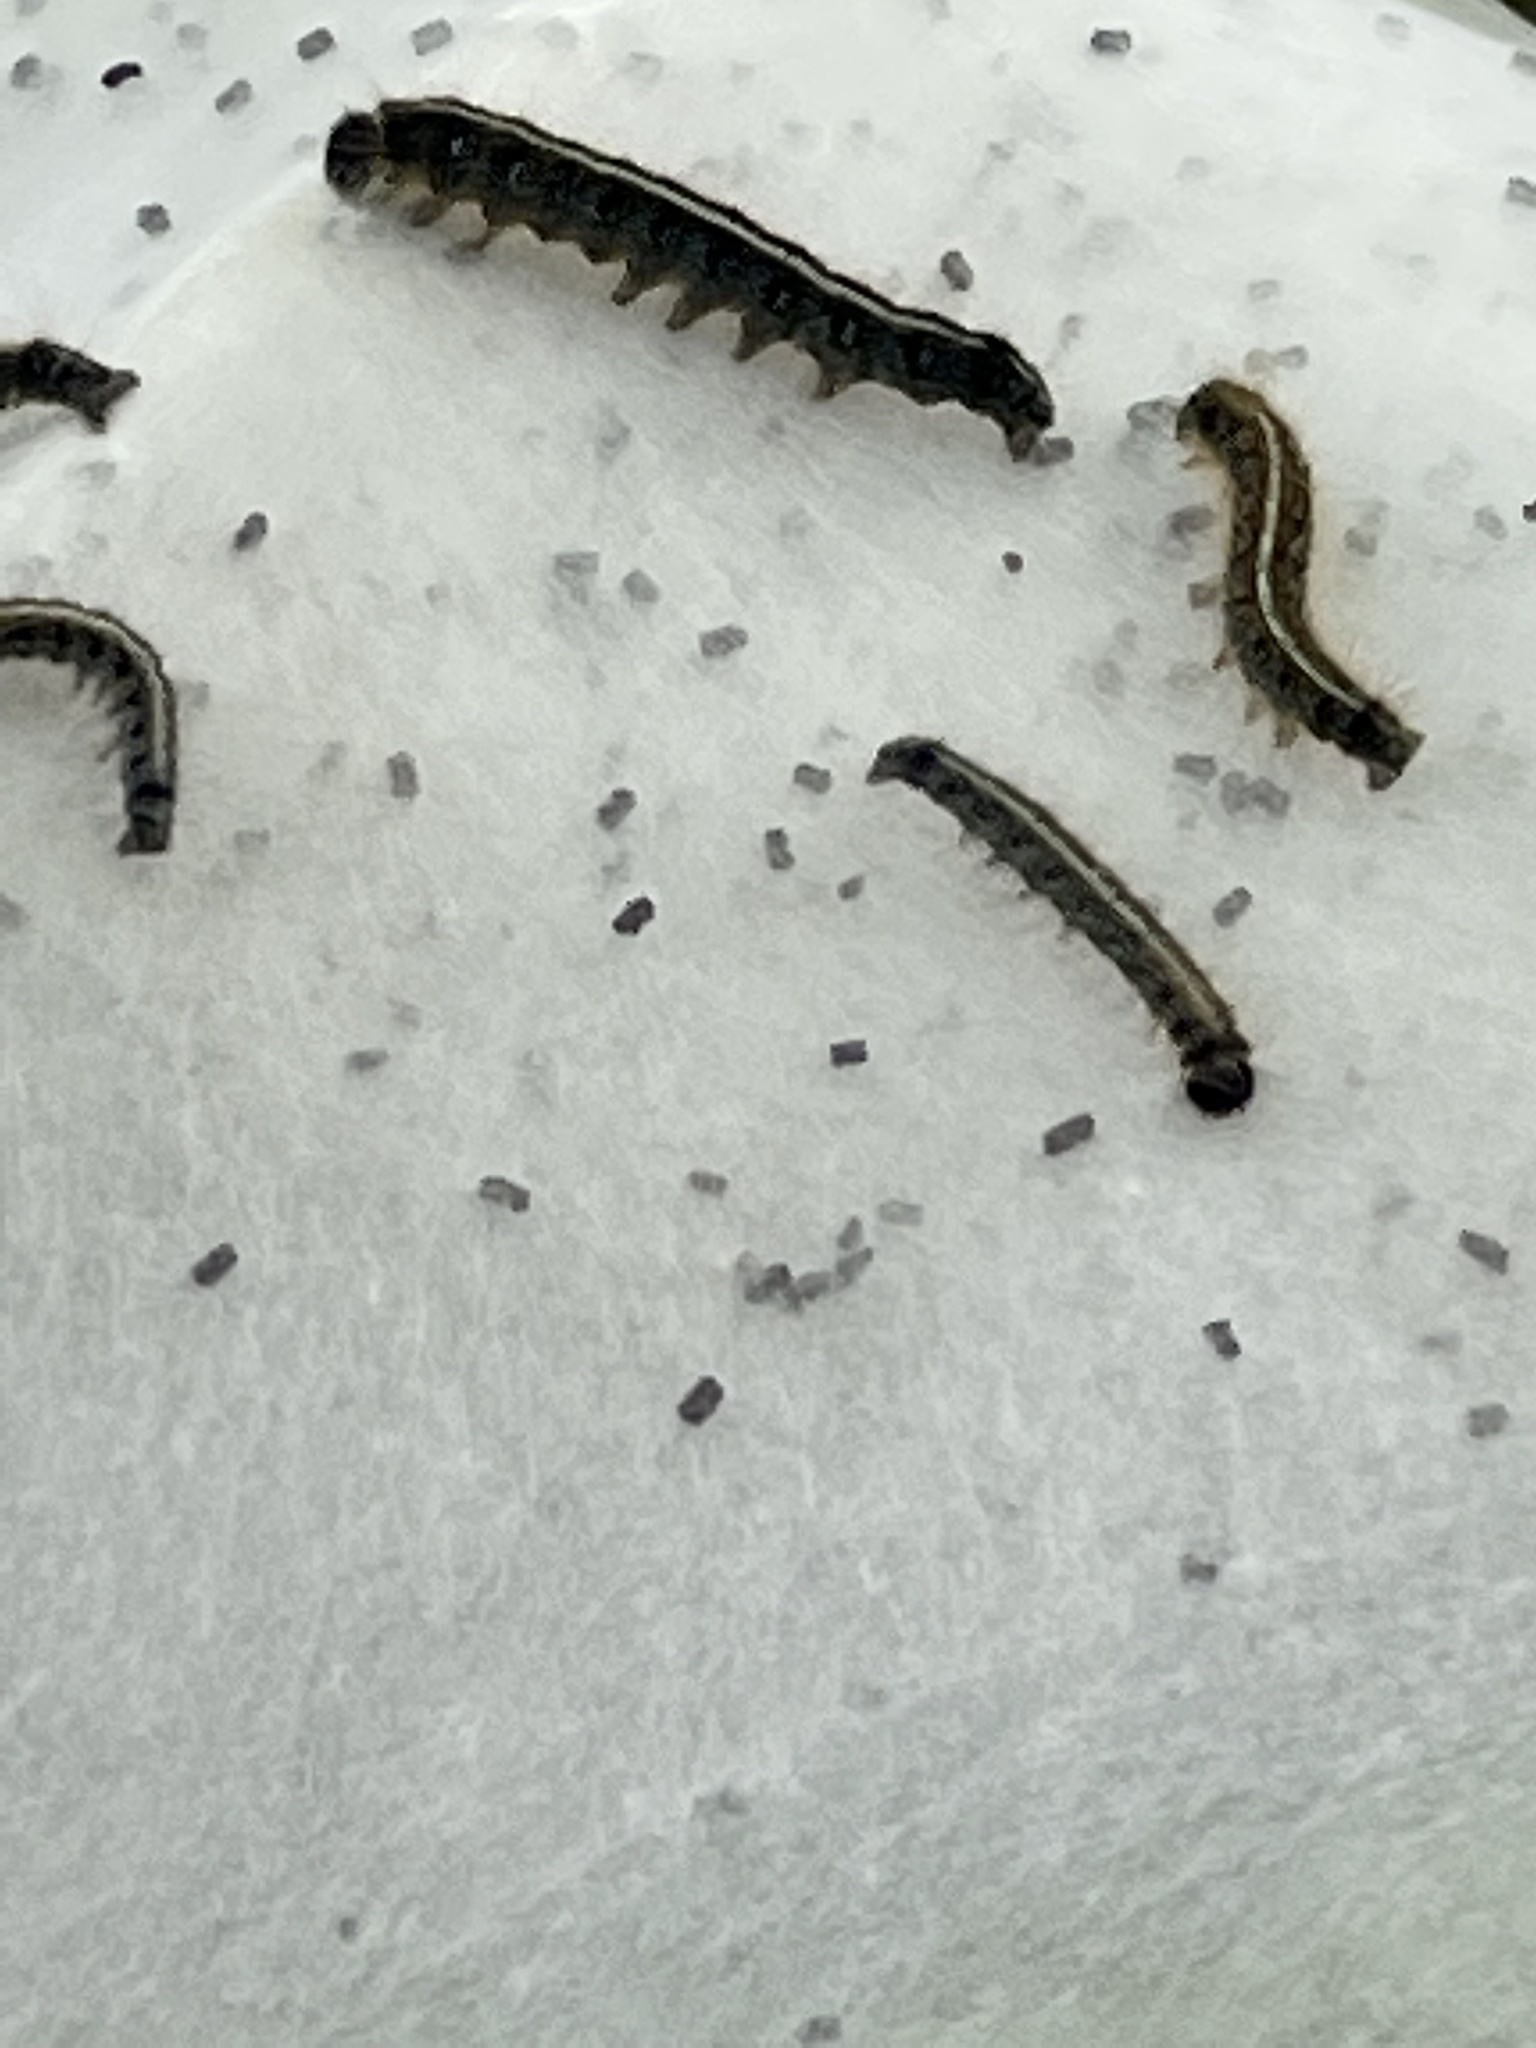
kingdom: Animalia
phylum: Arthropoda
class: Insecta
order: Lepidoptera
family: Lasiocampidae
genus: Malacosoma
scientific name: Malacosoma americana
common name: Eastern tent caterpillar moth
